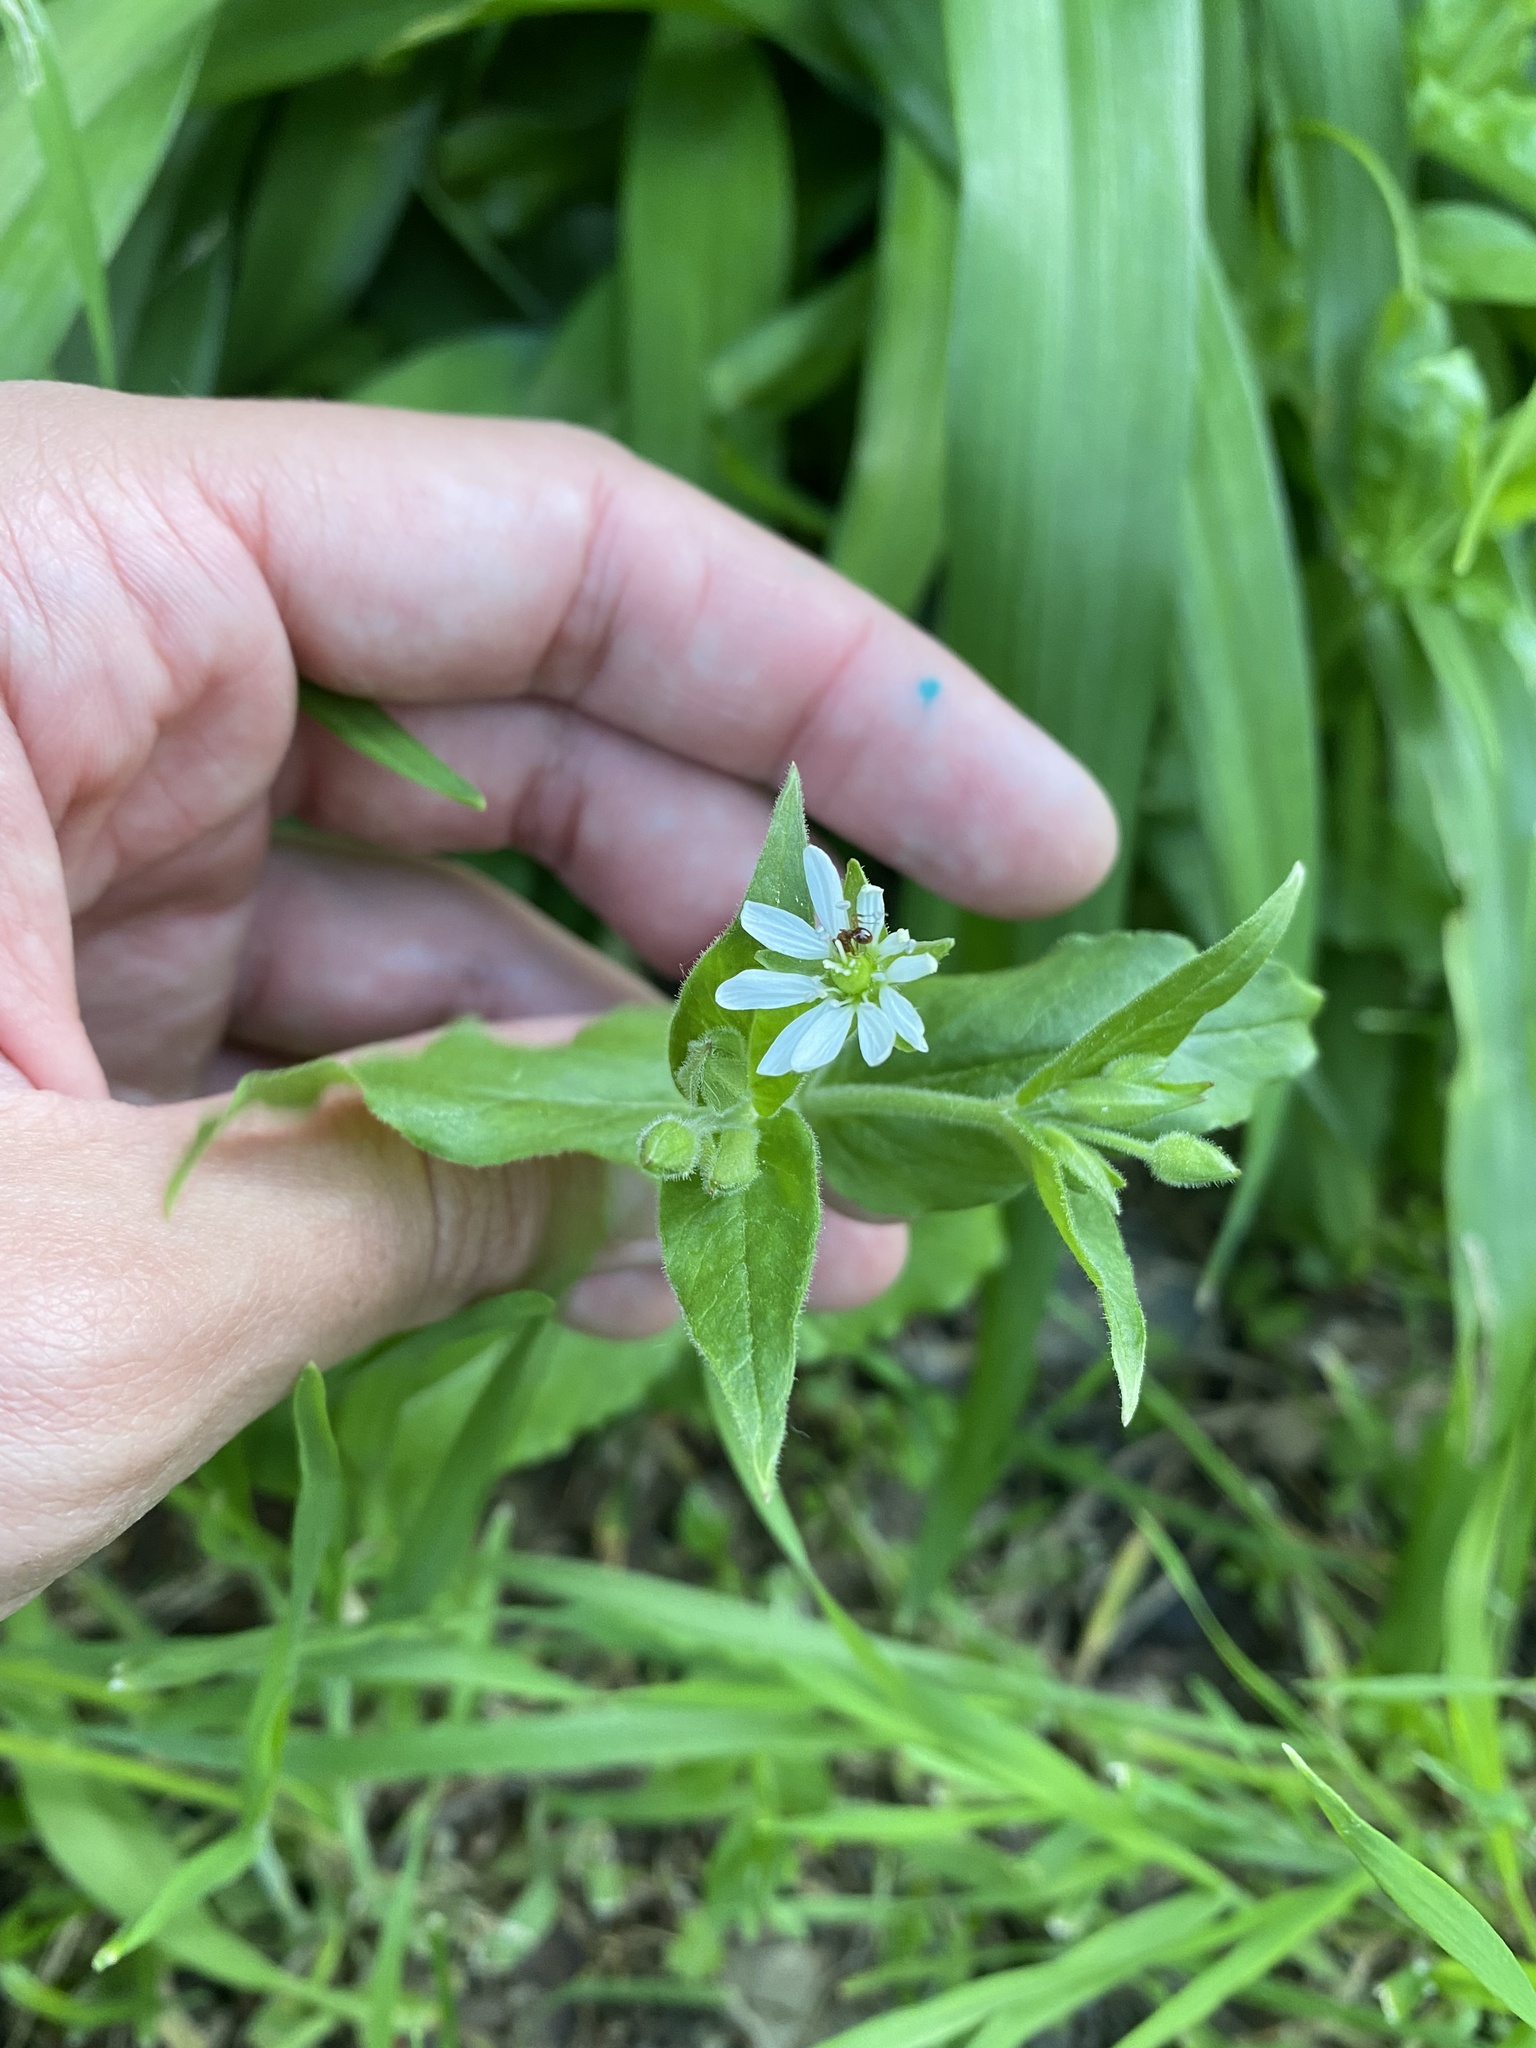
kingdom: Plantae
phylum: Tracheophyta
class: Magnoliopsida
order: Caryophyllales
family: Caryophyllaceae
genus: Stellaria
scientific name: Stellaria aquatica
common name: Water chickweed
